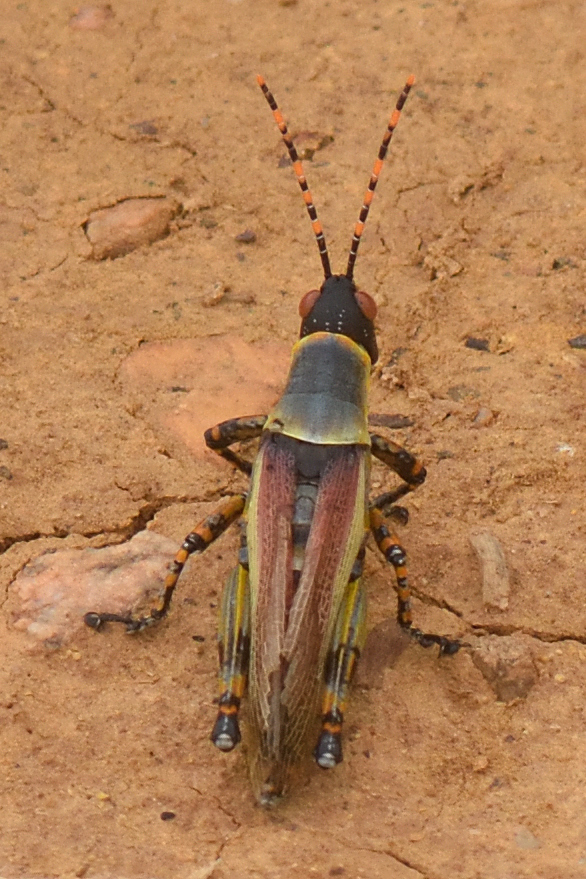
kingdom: Animalia
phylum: Arthropoda
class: Insecta
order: Orthoptera
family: Pyrgomorphidae
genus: Zonocerus
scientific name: Zonocerus elegans
